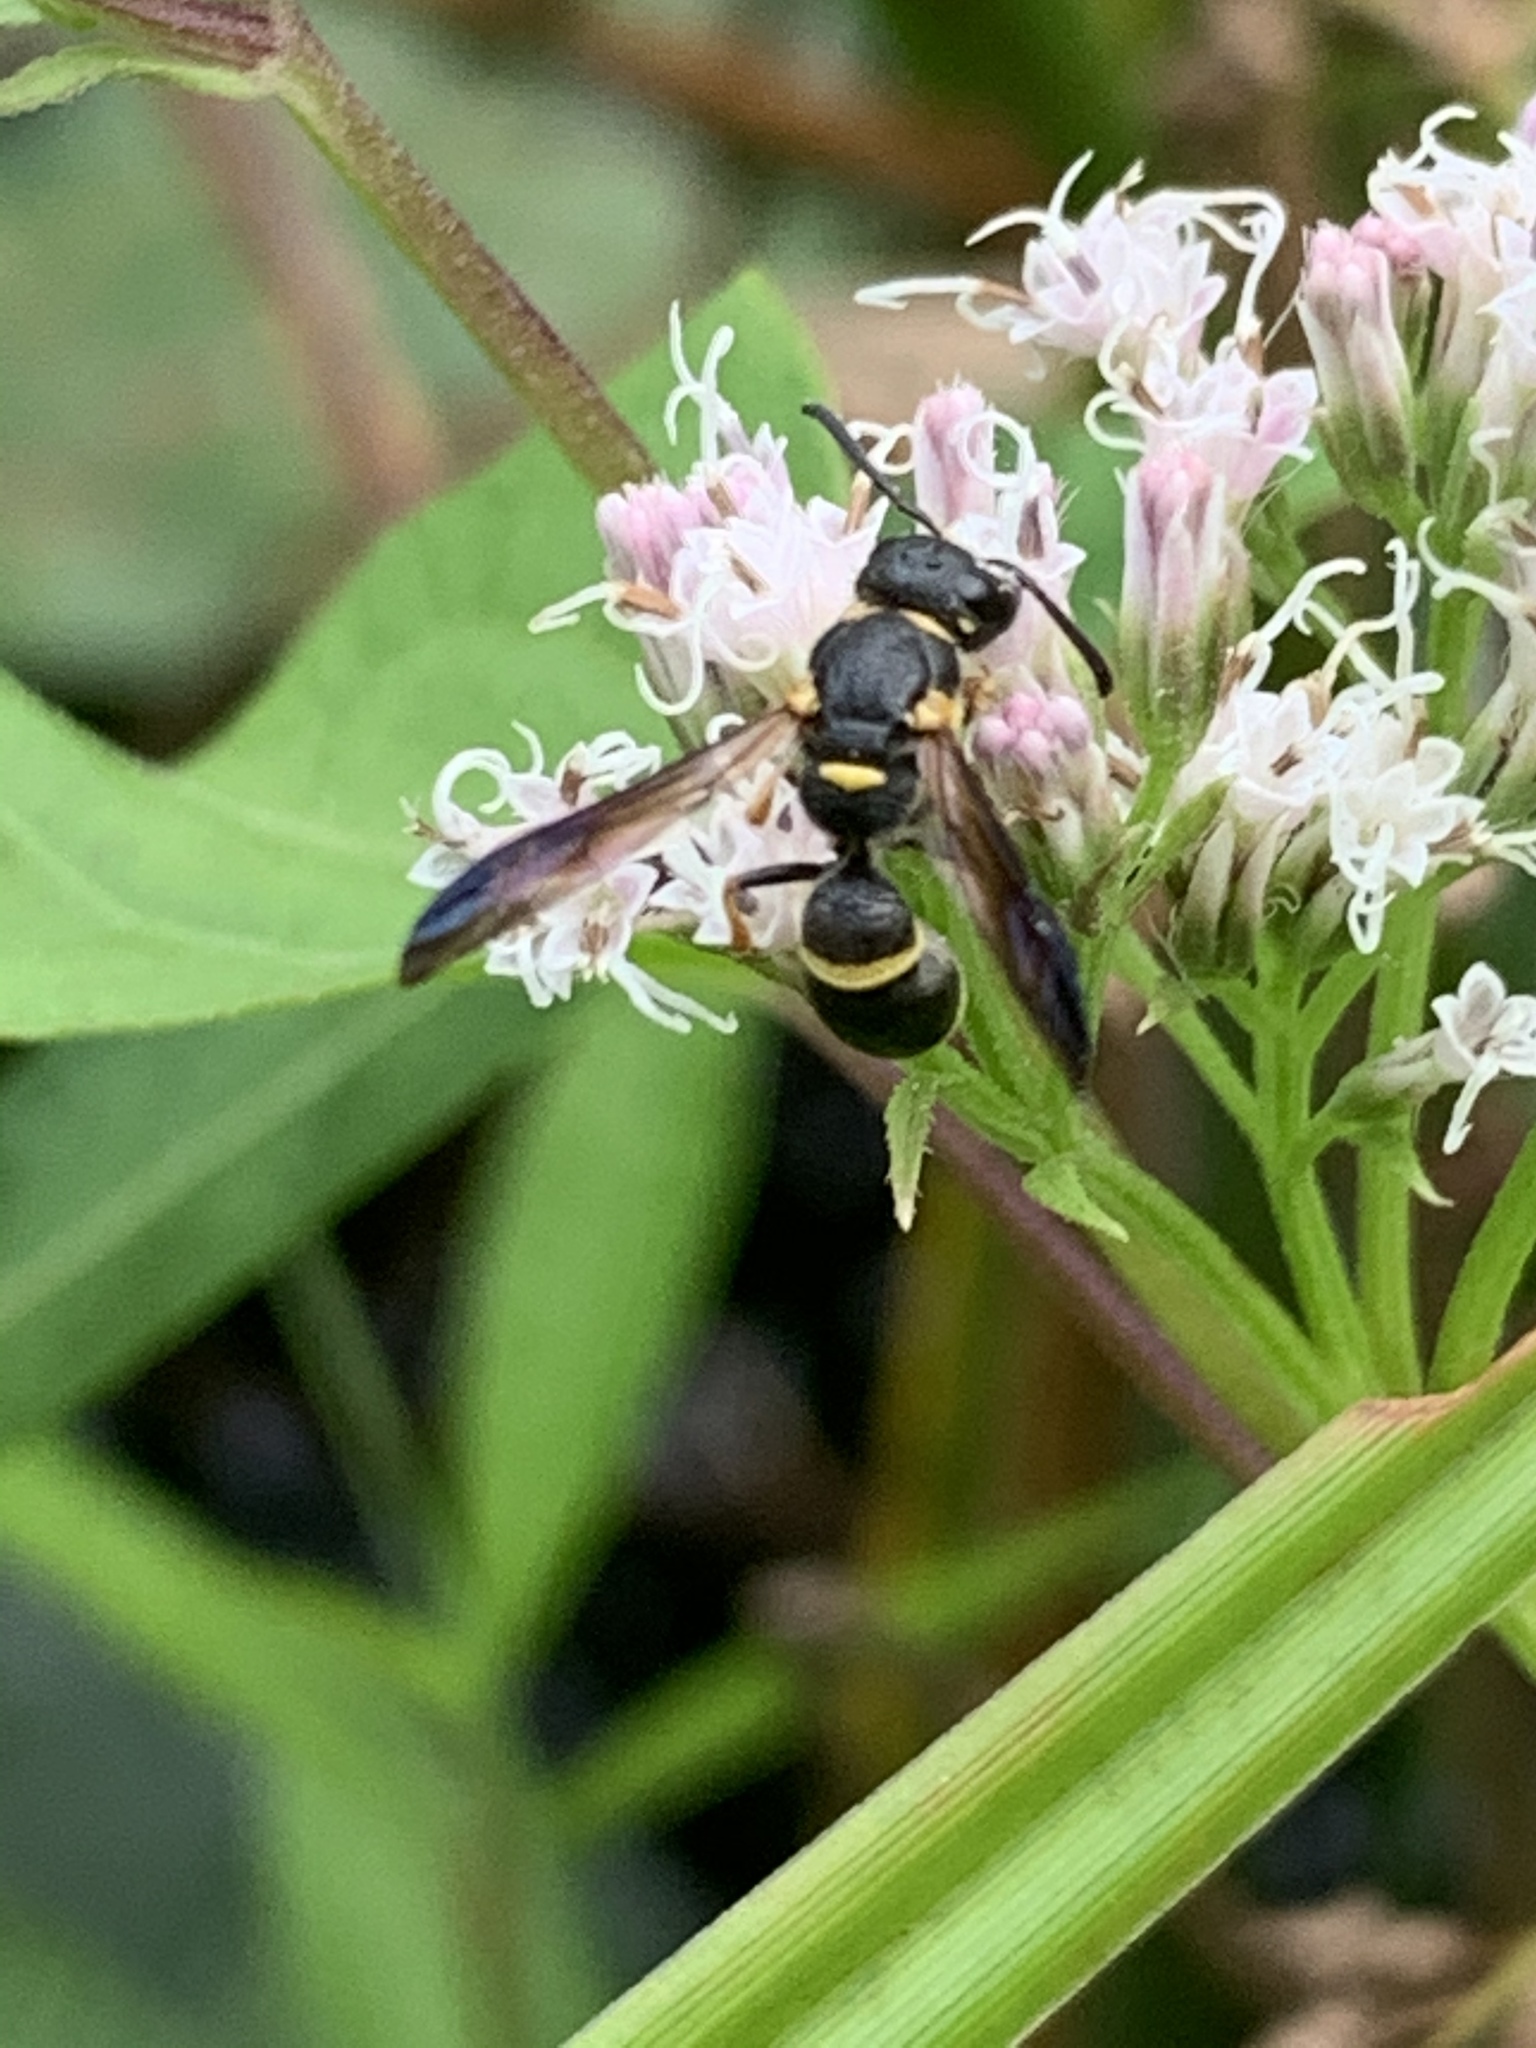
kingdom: Animalia
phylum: Arthropoda
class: Insecta
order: Hymenoptera
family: Eumenidae
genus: Parancistrocerus
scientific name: Parancistrocerus perennis
